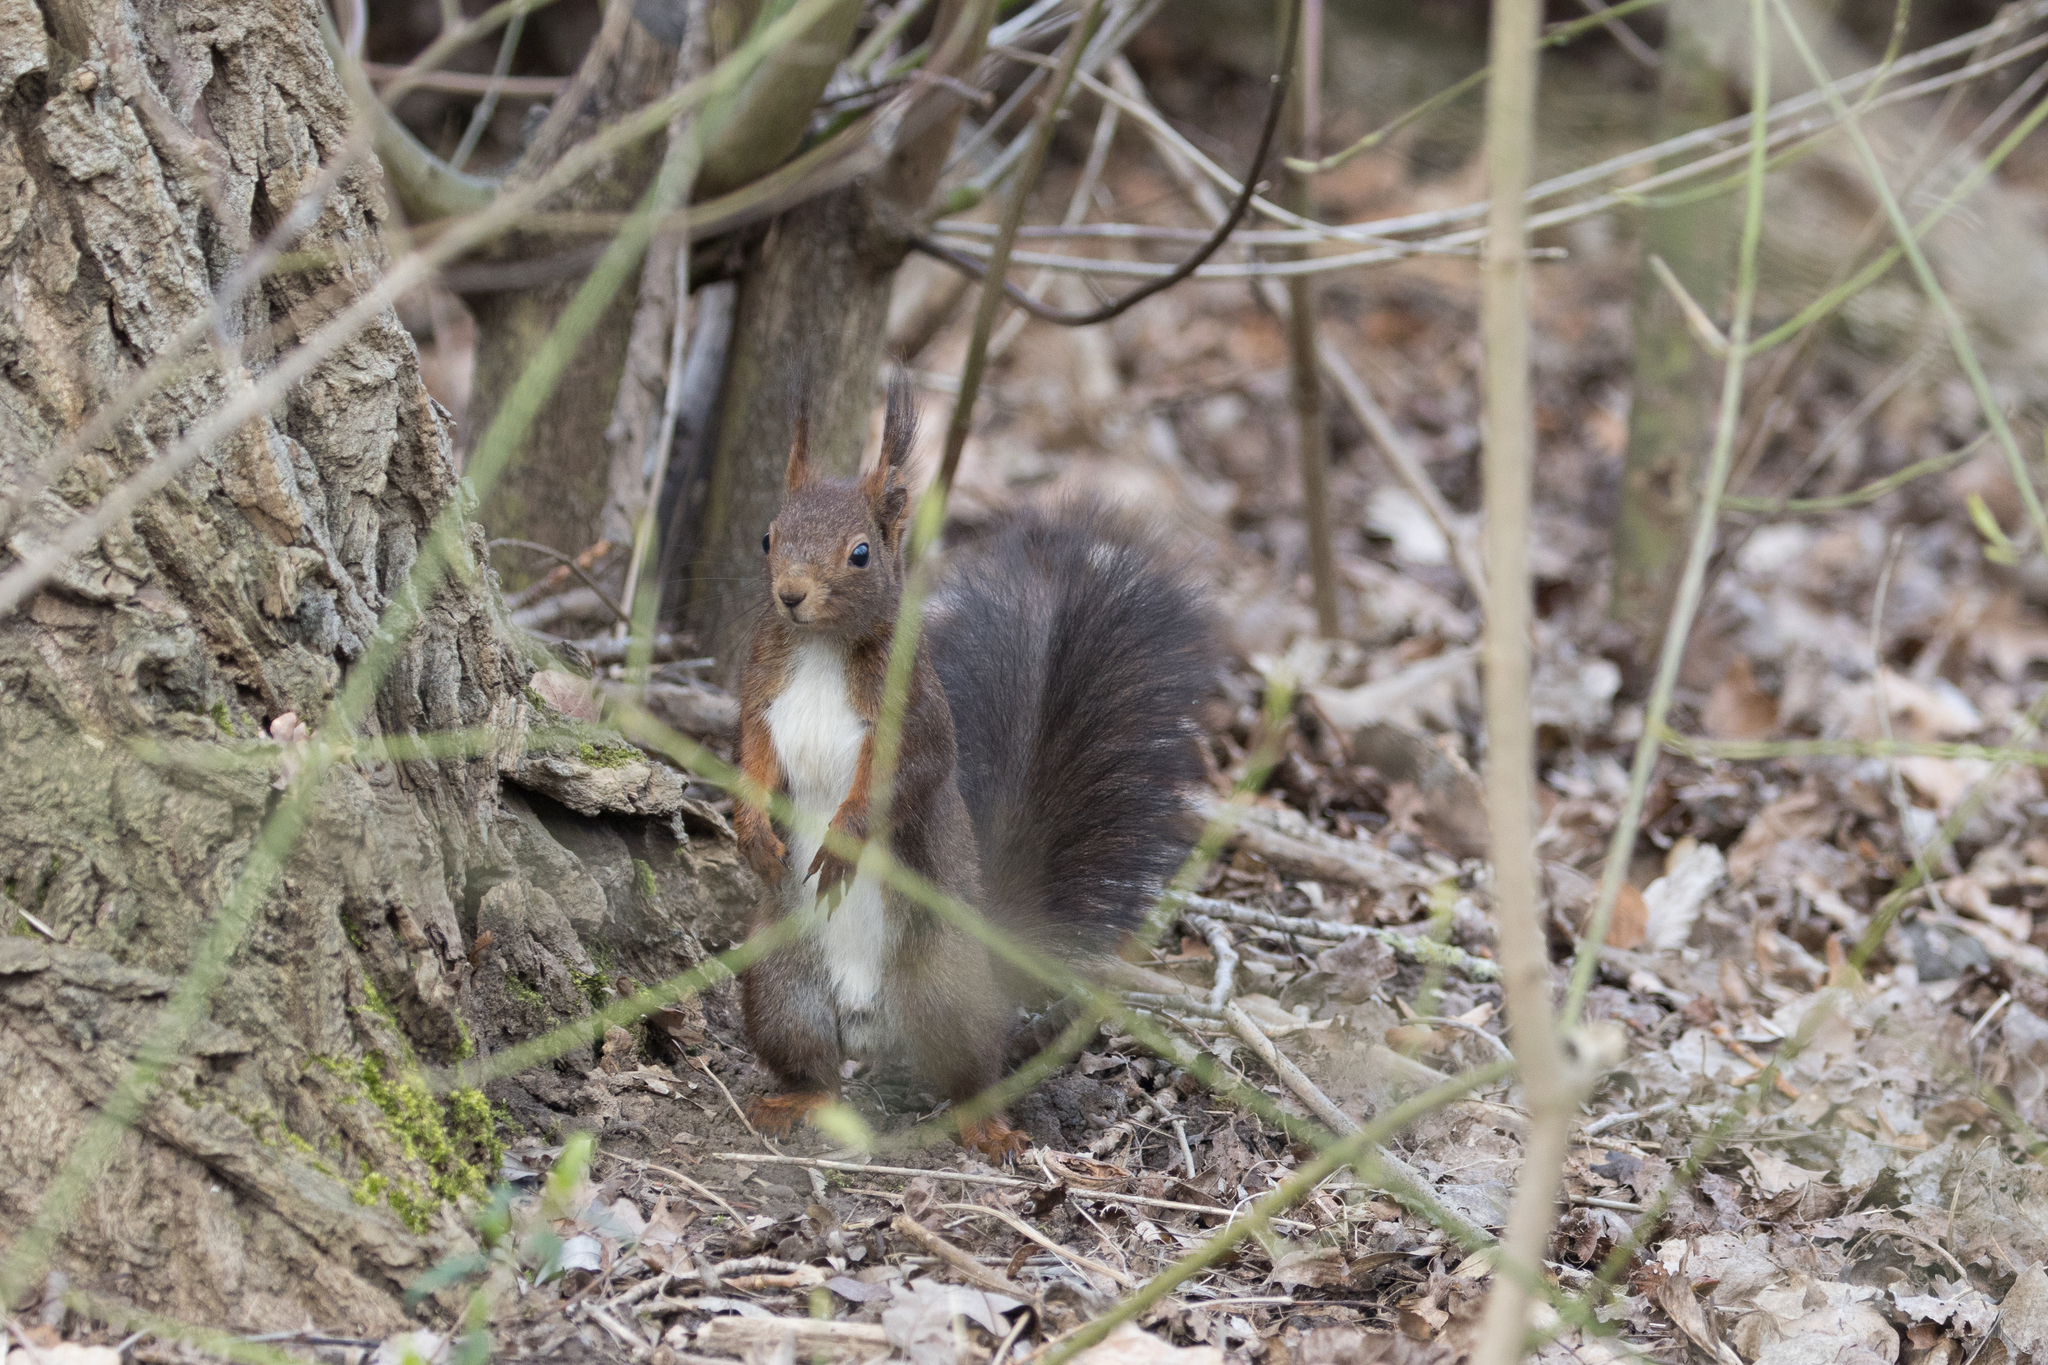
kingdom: Animalia
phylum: Chordata
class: Mammalia
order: Rodentia
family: Sciuridae
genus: Sciurus
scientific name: Sciurus vulgaris
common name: Eurasian red squirrel
